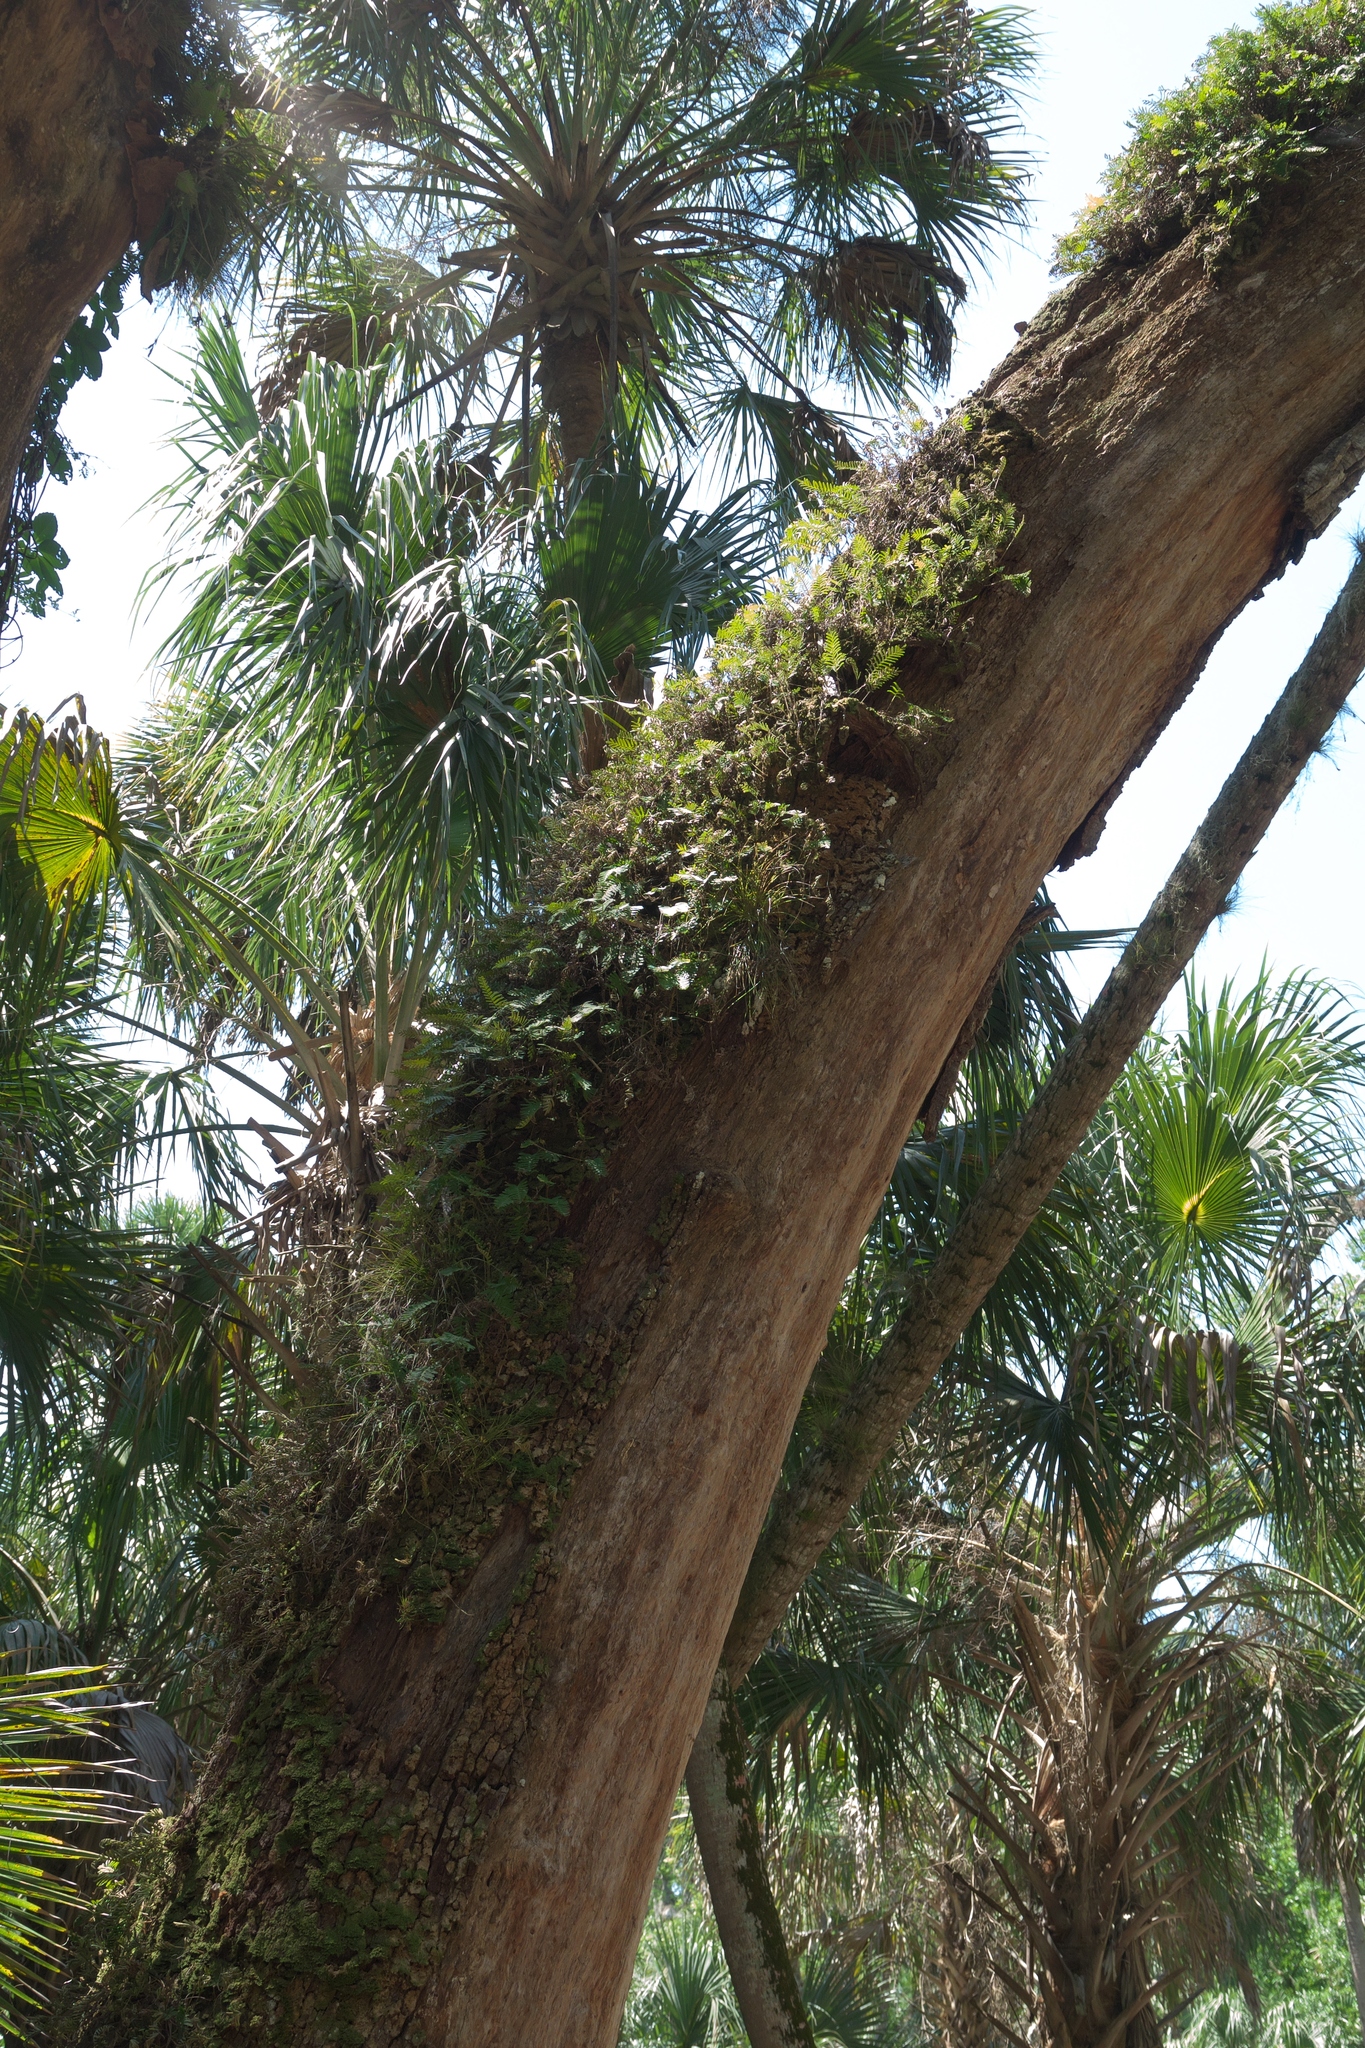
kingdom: Plantae
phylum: Tracheophyta
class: Polypodiopsida
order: Polypodiales
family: Polypodiaceae
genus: Pleopeltis
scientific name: Pleopeltis michauxiana
